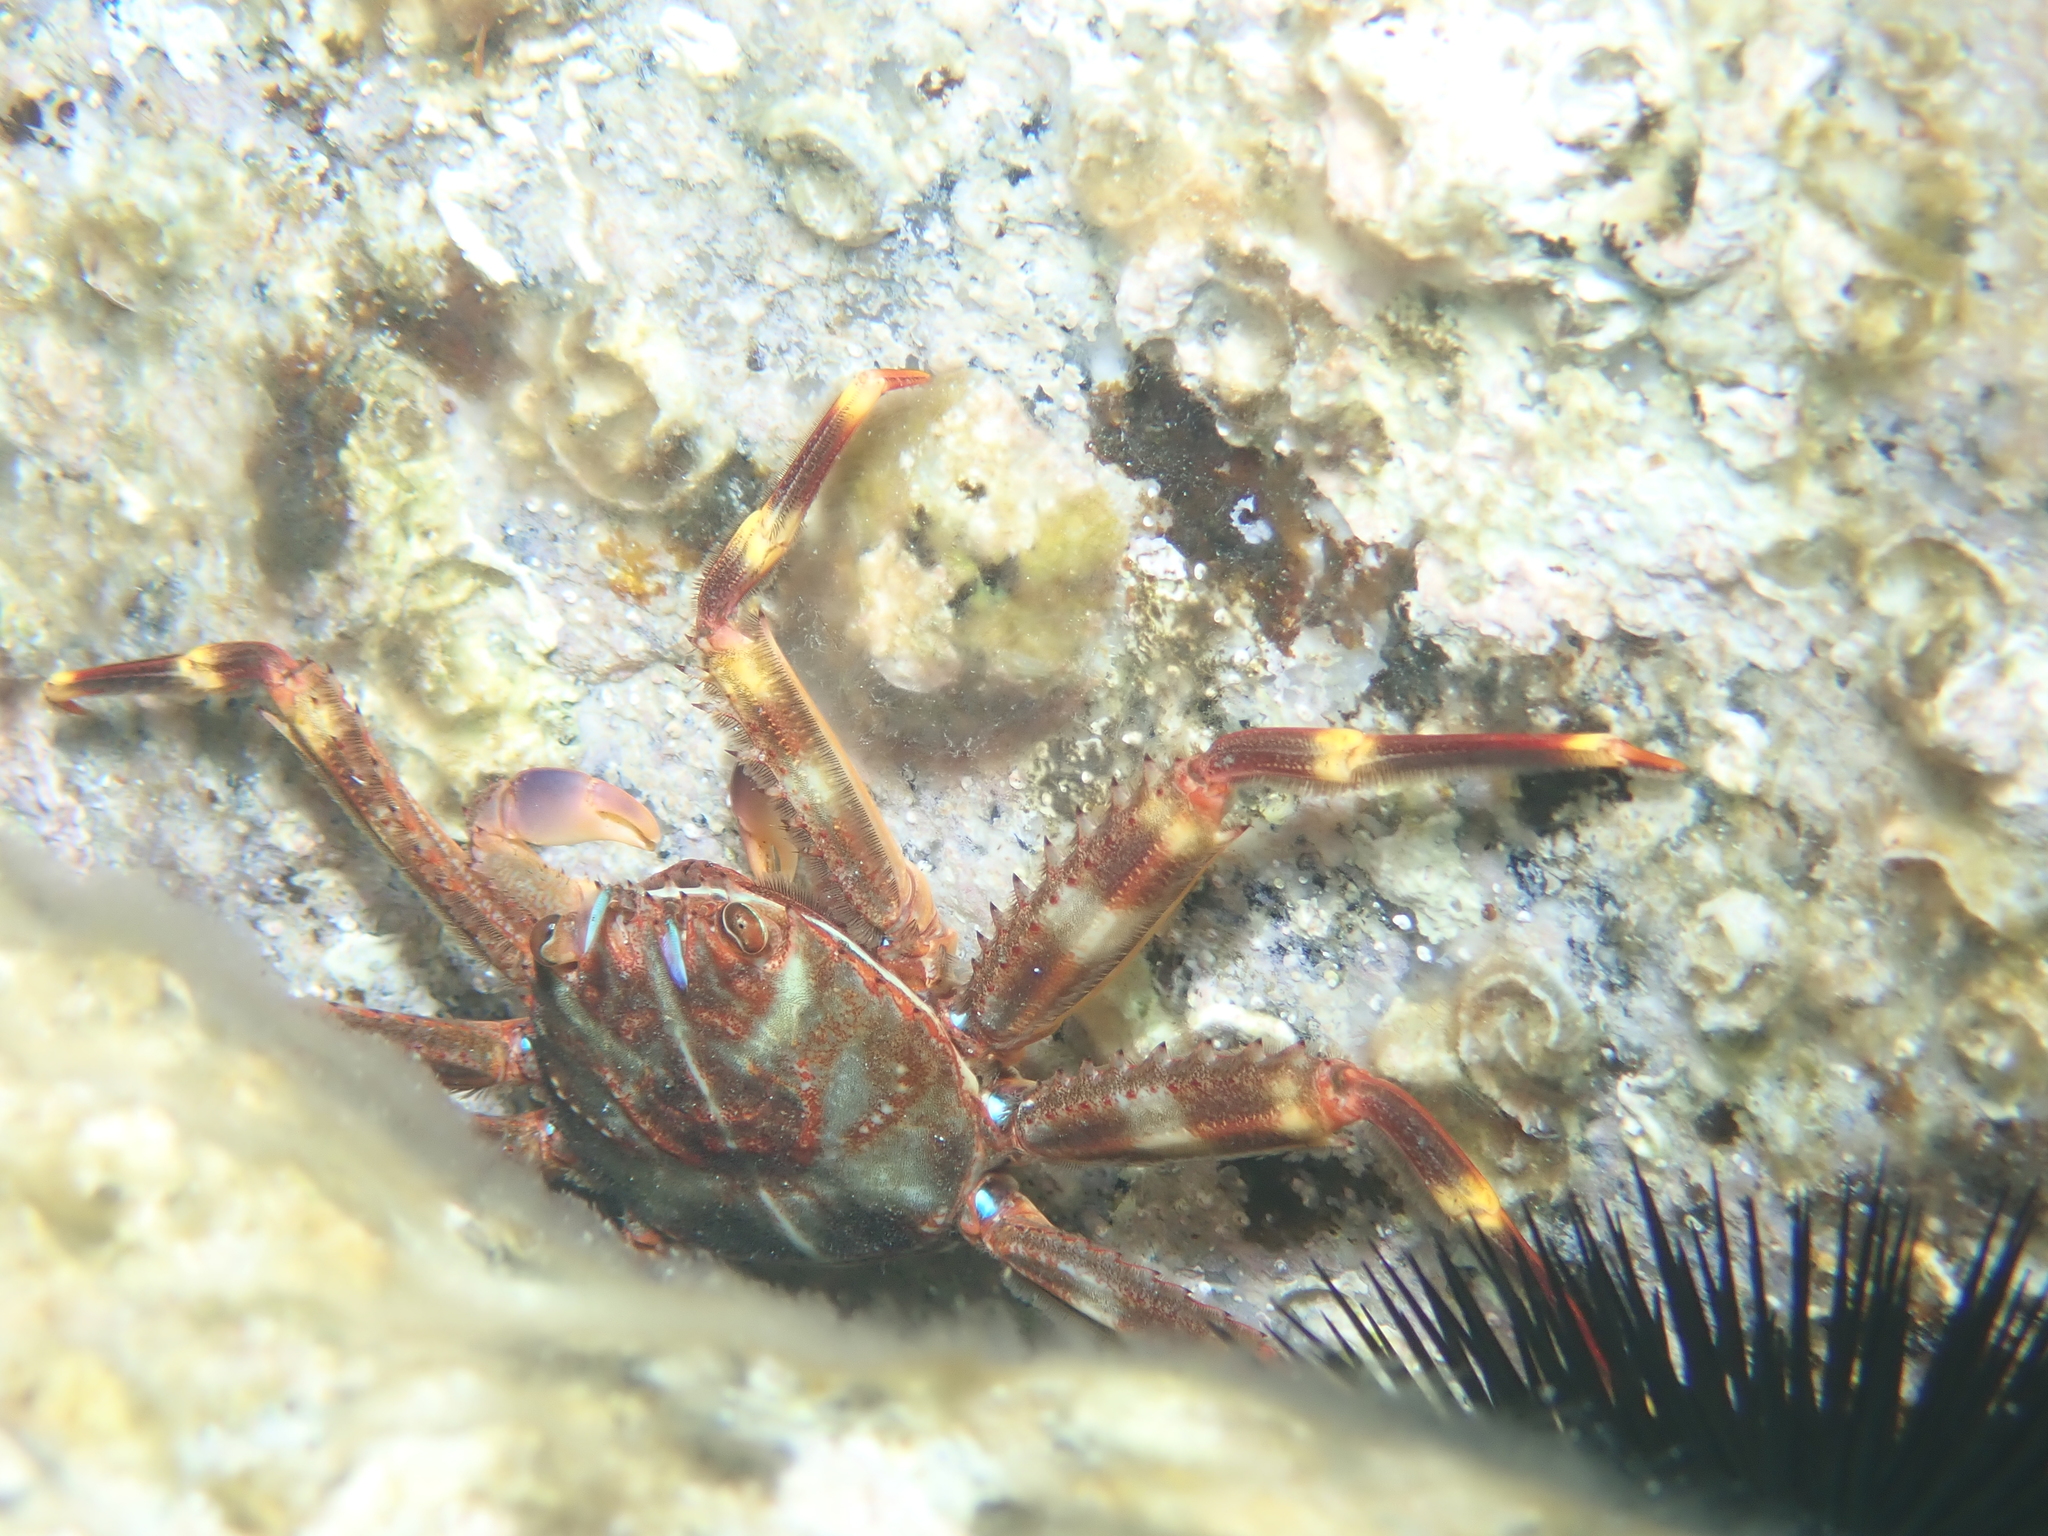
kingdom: Animalia
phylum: Arthropoda
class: Malacostraca
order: Decapoda
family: Percnidae
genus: Percnon
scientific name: Percnon gibbesi
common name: Nimble spray crab
